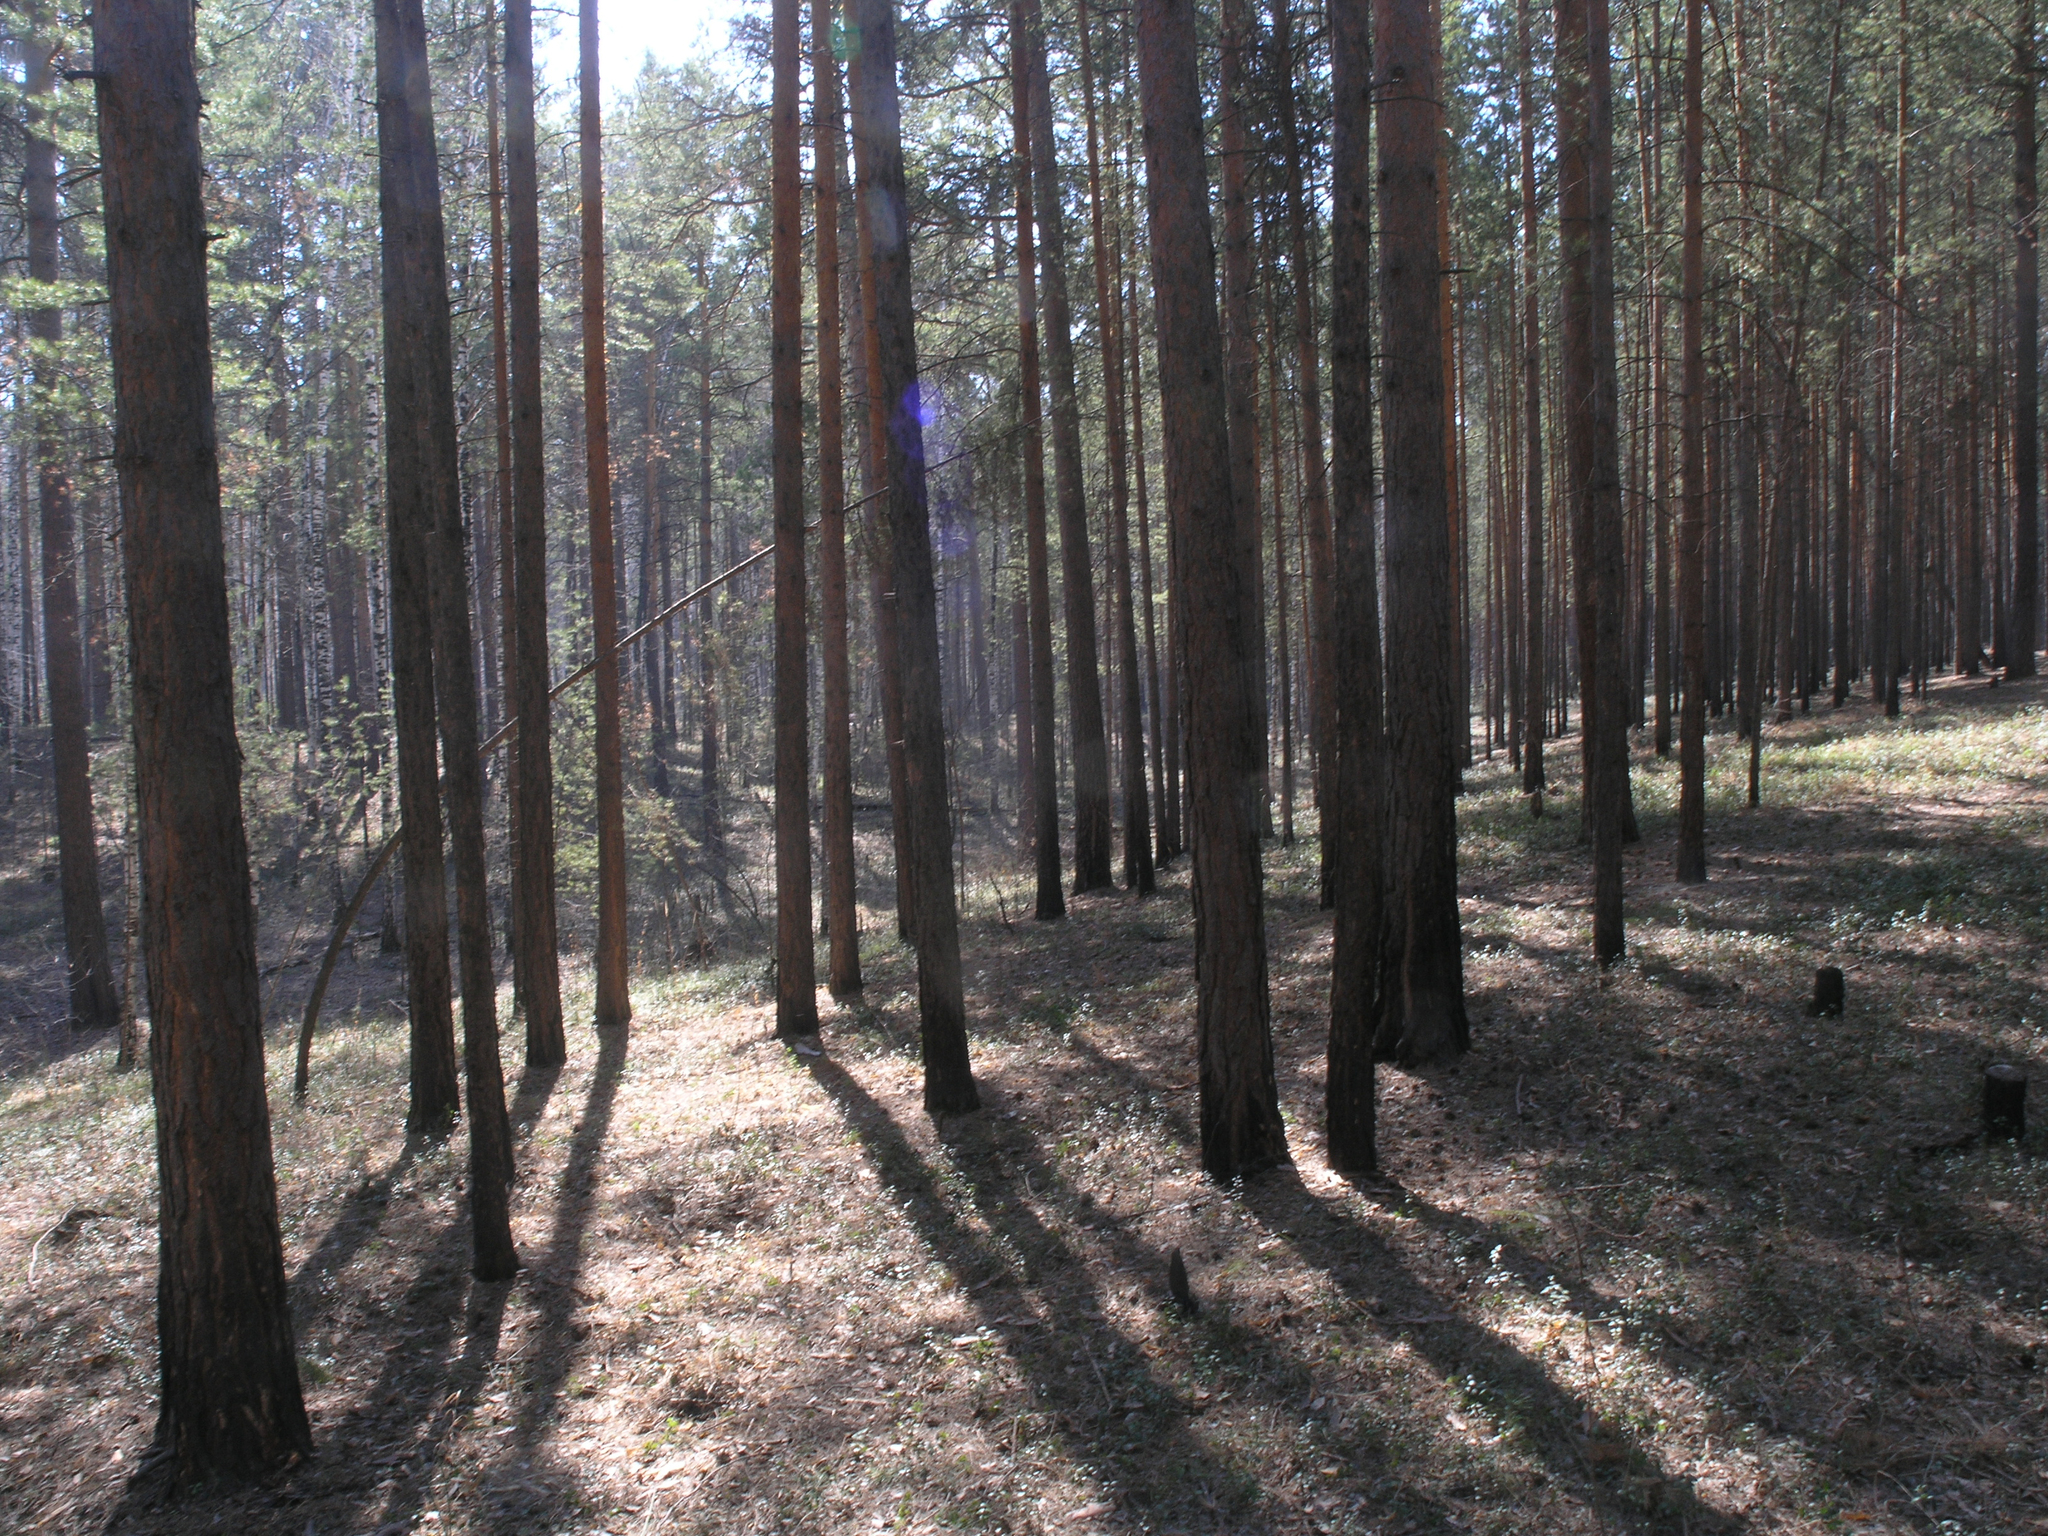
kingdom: Plantae
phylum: Tracheophyta
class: Pinopsida
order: Pinales
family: Pinaceae
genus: Pinus
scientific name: Pinus sylvestris
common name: Scots pine
